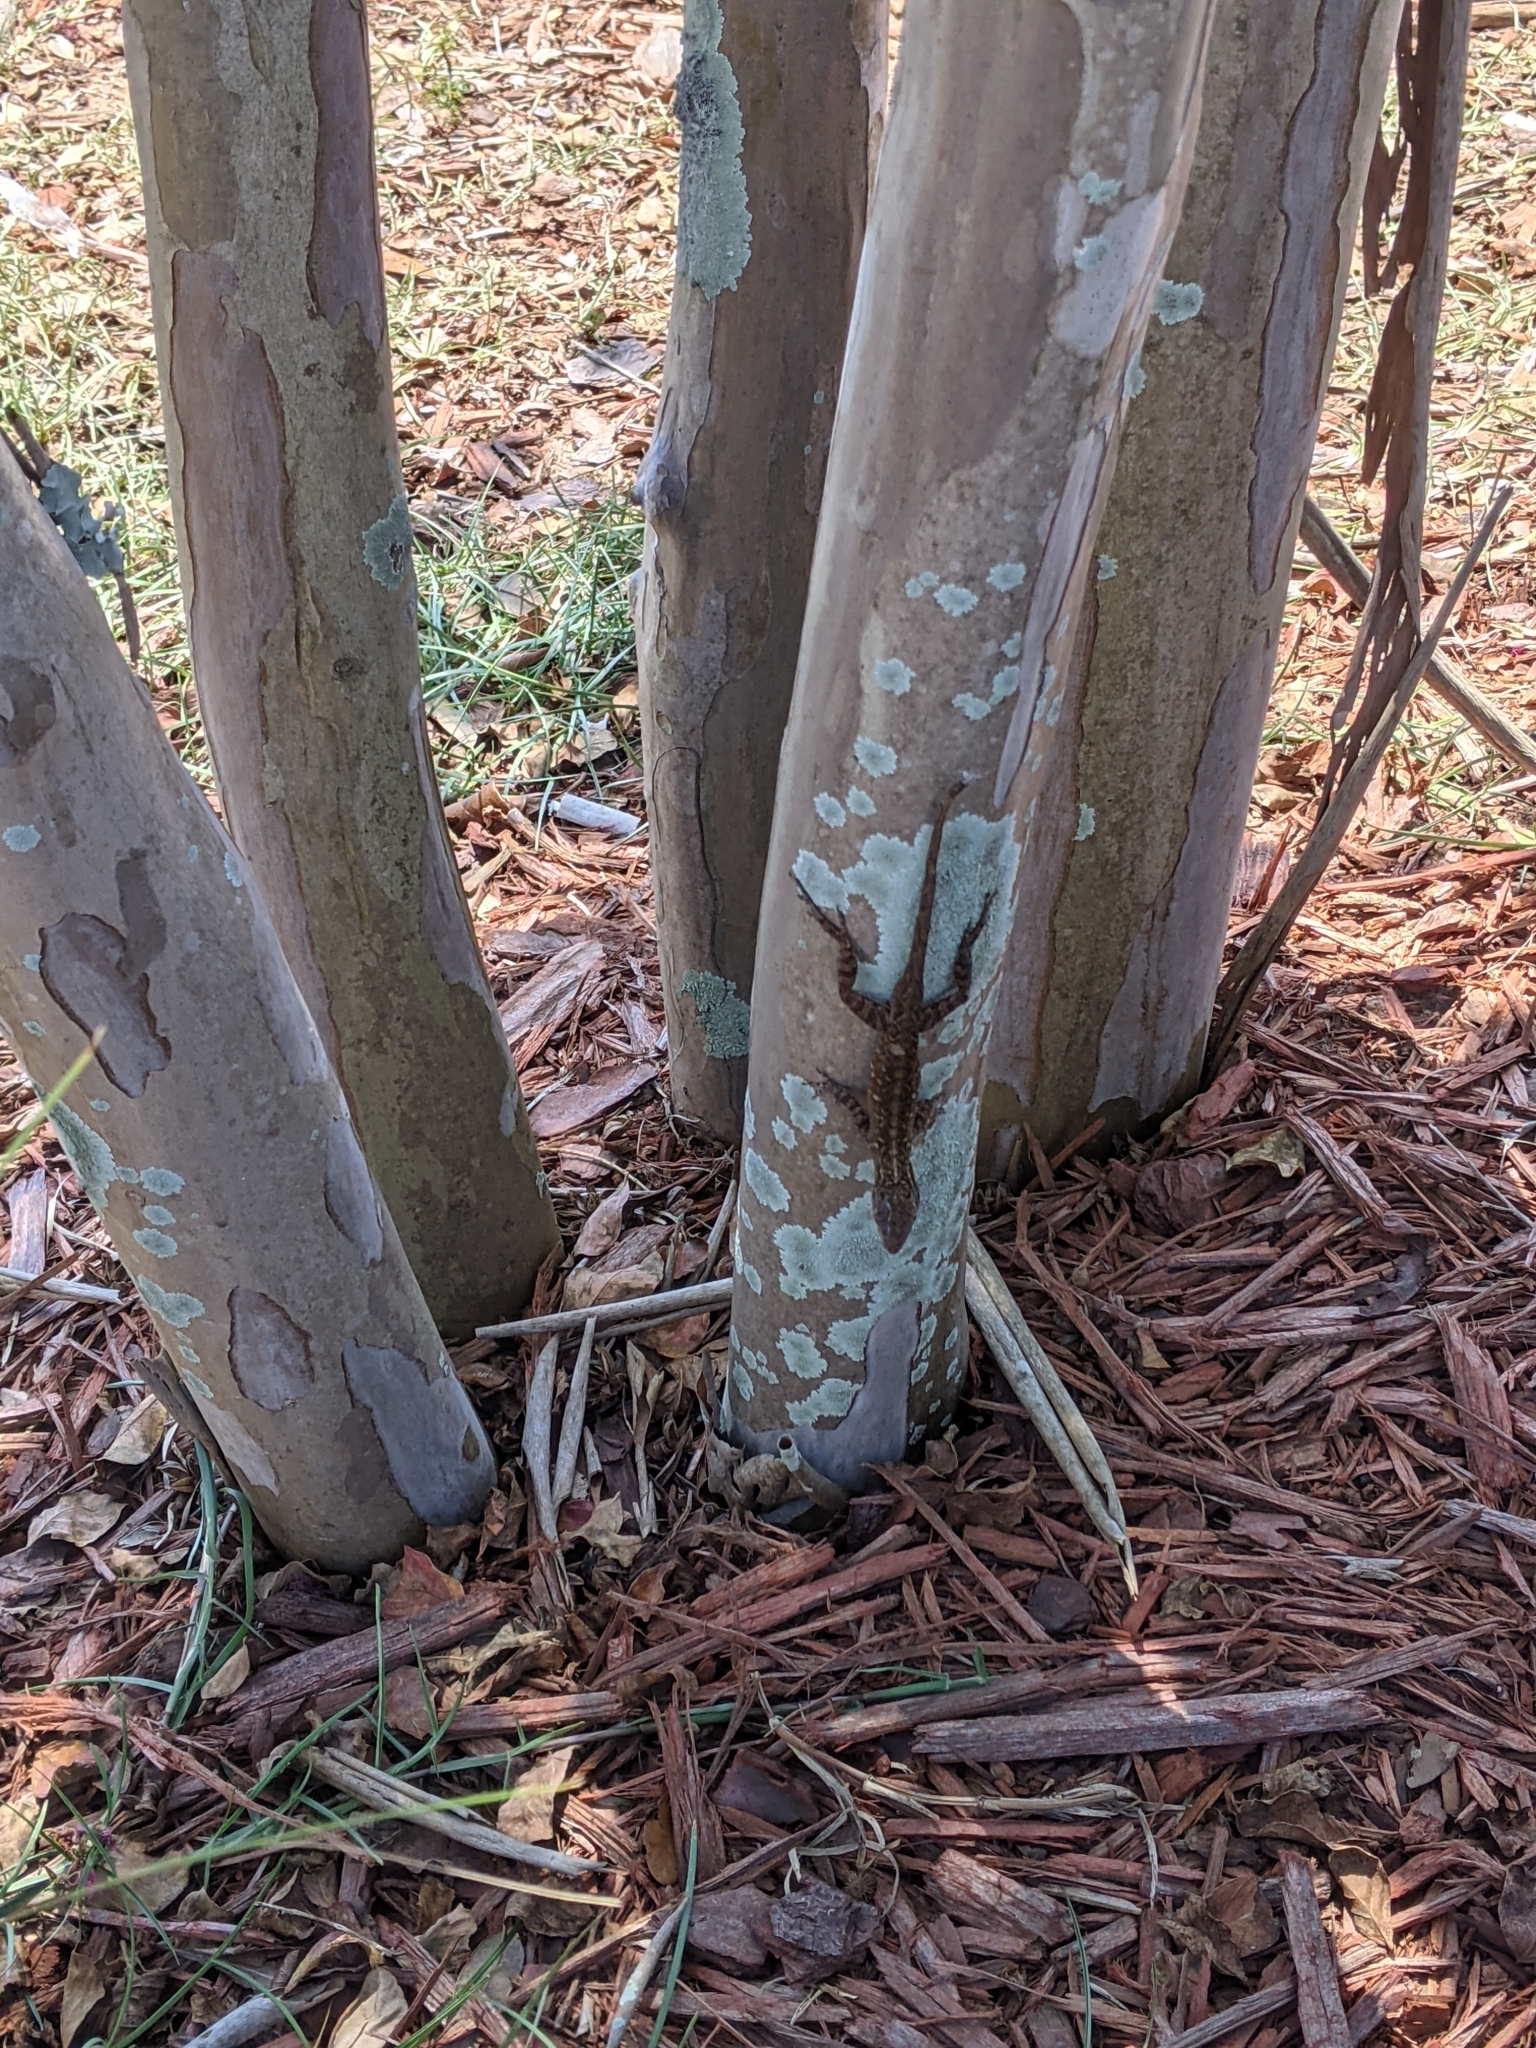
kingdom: Animalia
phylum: Chordata
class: Squamata
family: Dactyloidae
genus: Anolis
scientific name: Anolis sagrei
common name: Brown anole
